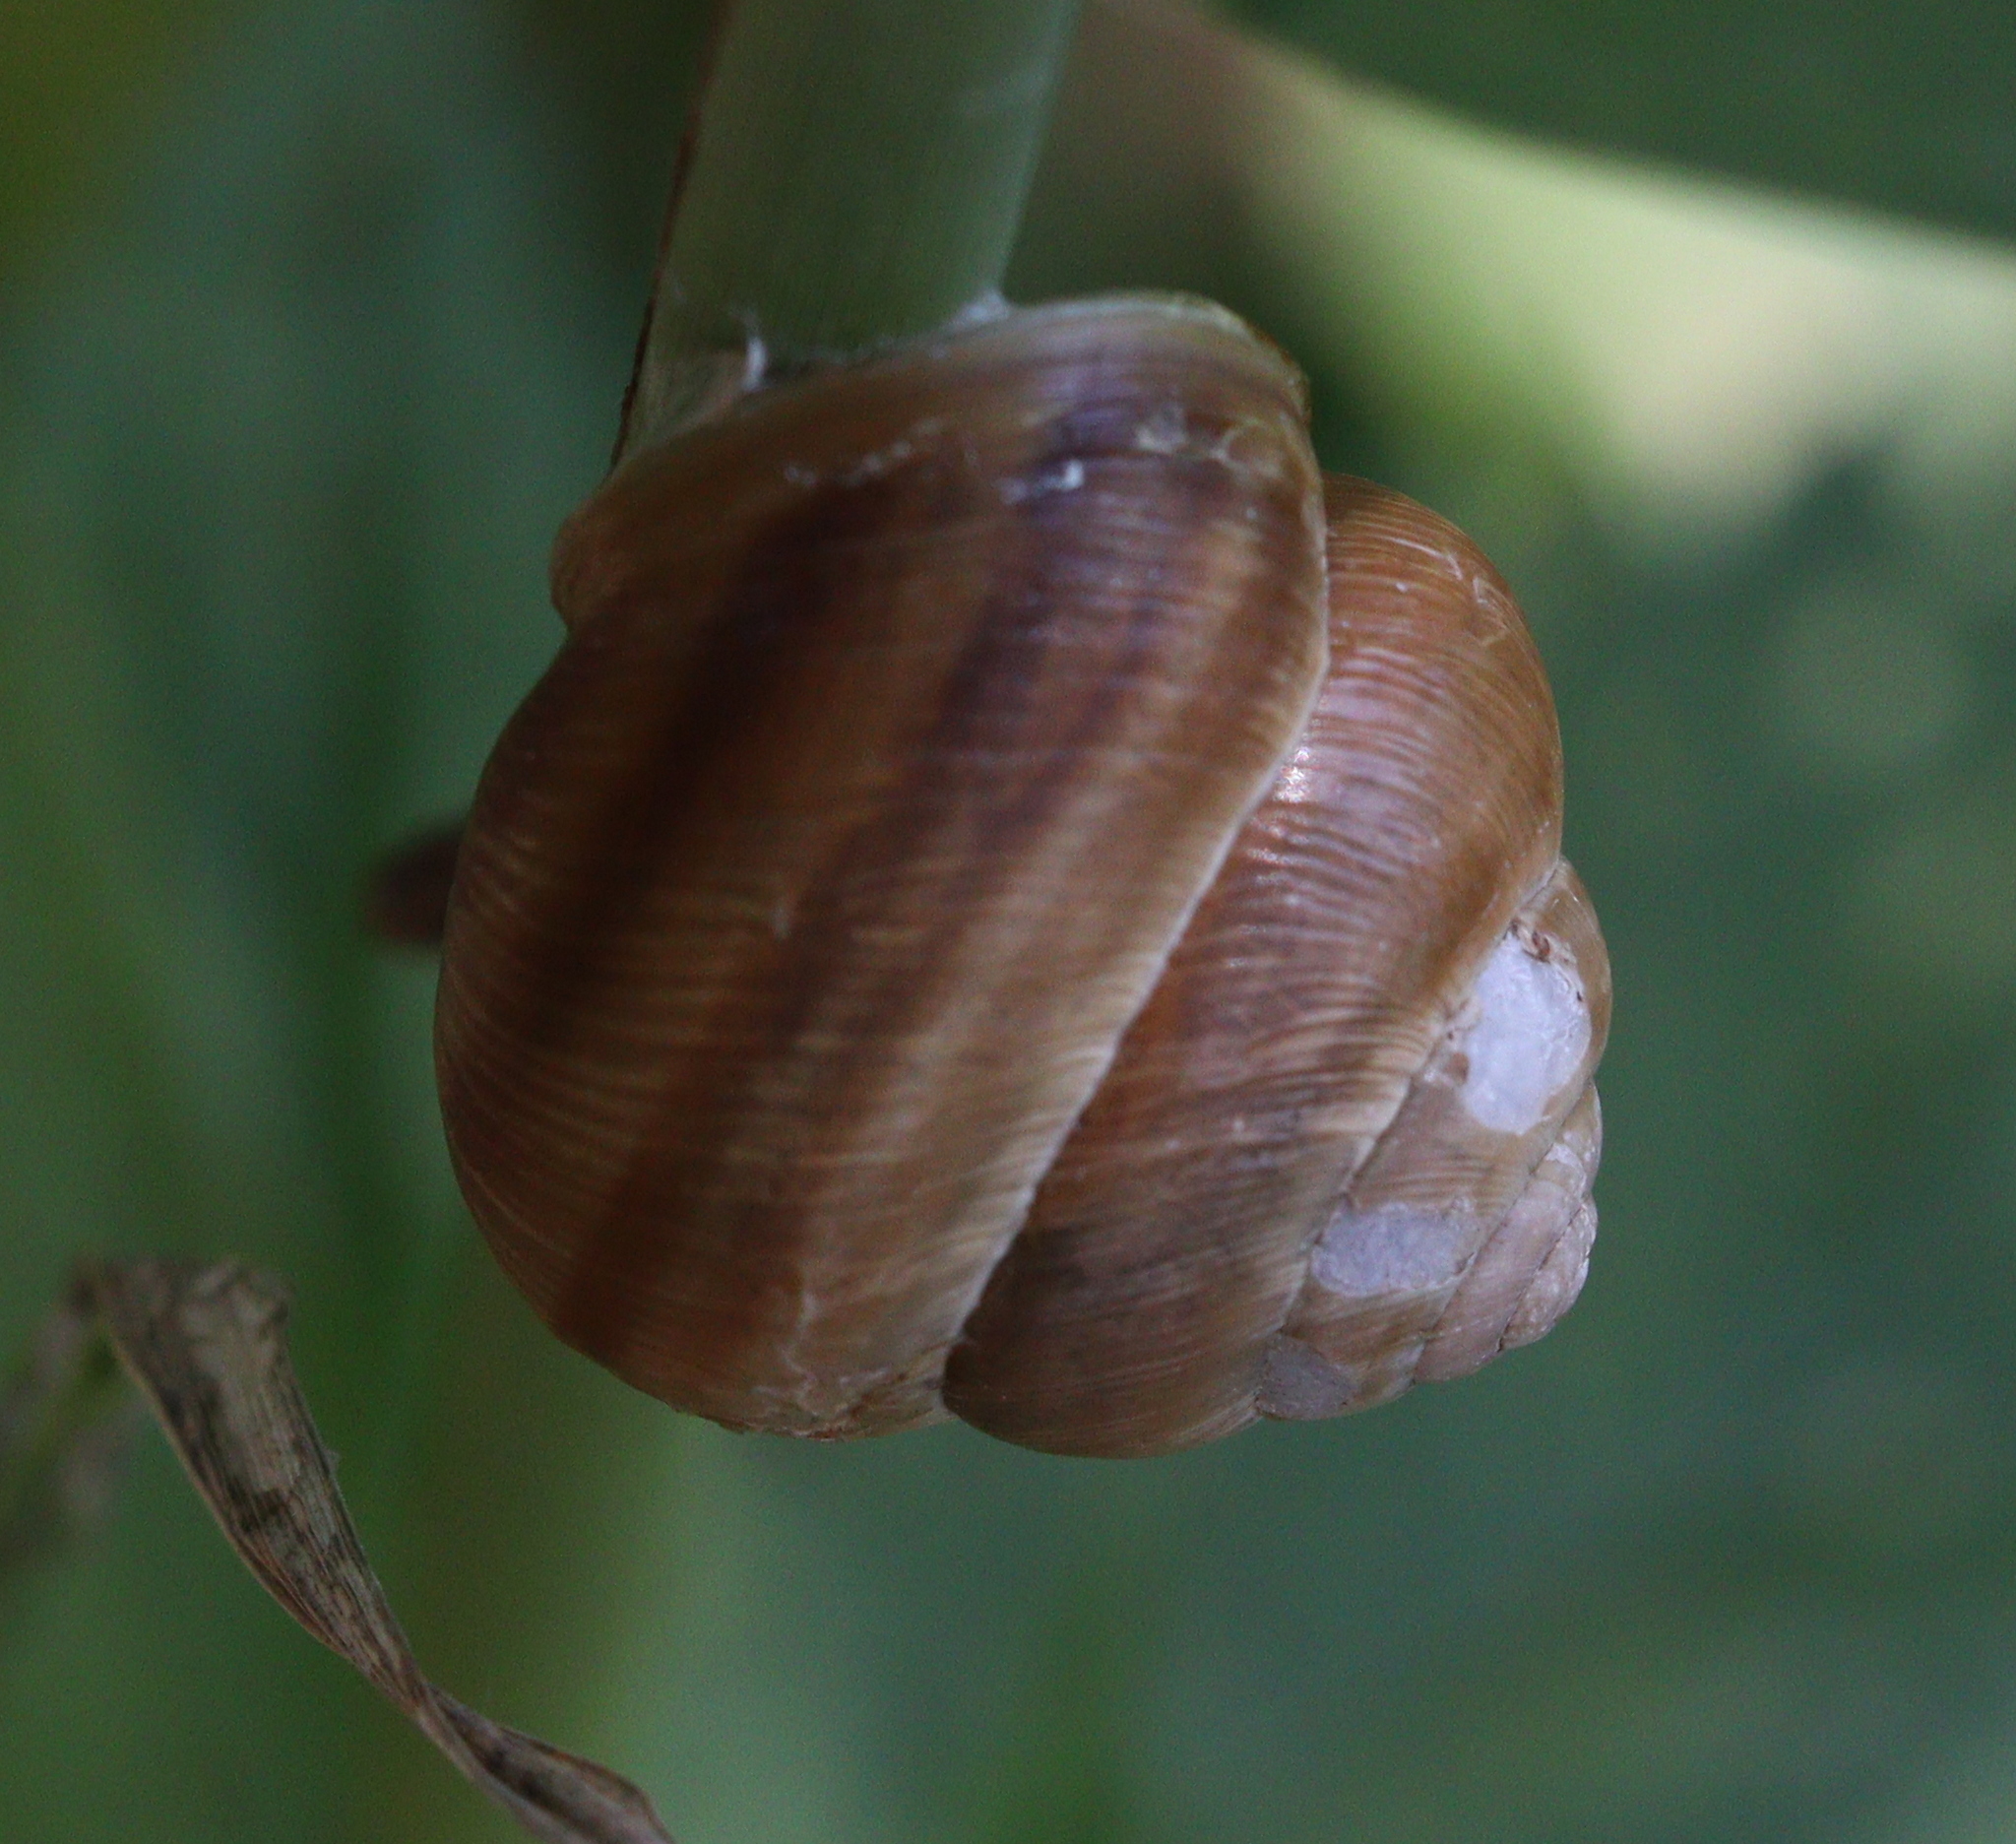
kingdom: Animalia
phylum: Mollusca
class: Gastropoda
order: Stylommatophora
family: Helicidae
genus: Caucasotachea
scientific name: Caucasotachea vindobonensis
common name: European helicid land snail
